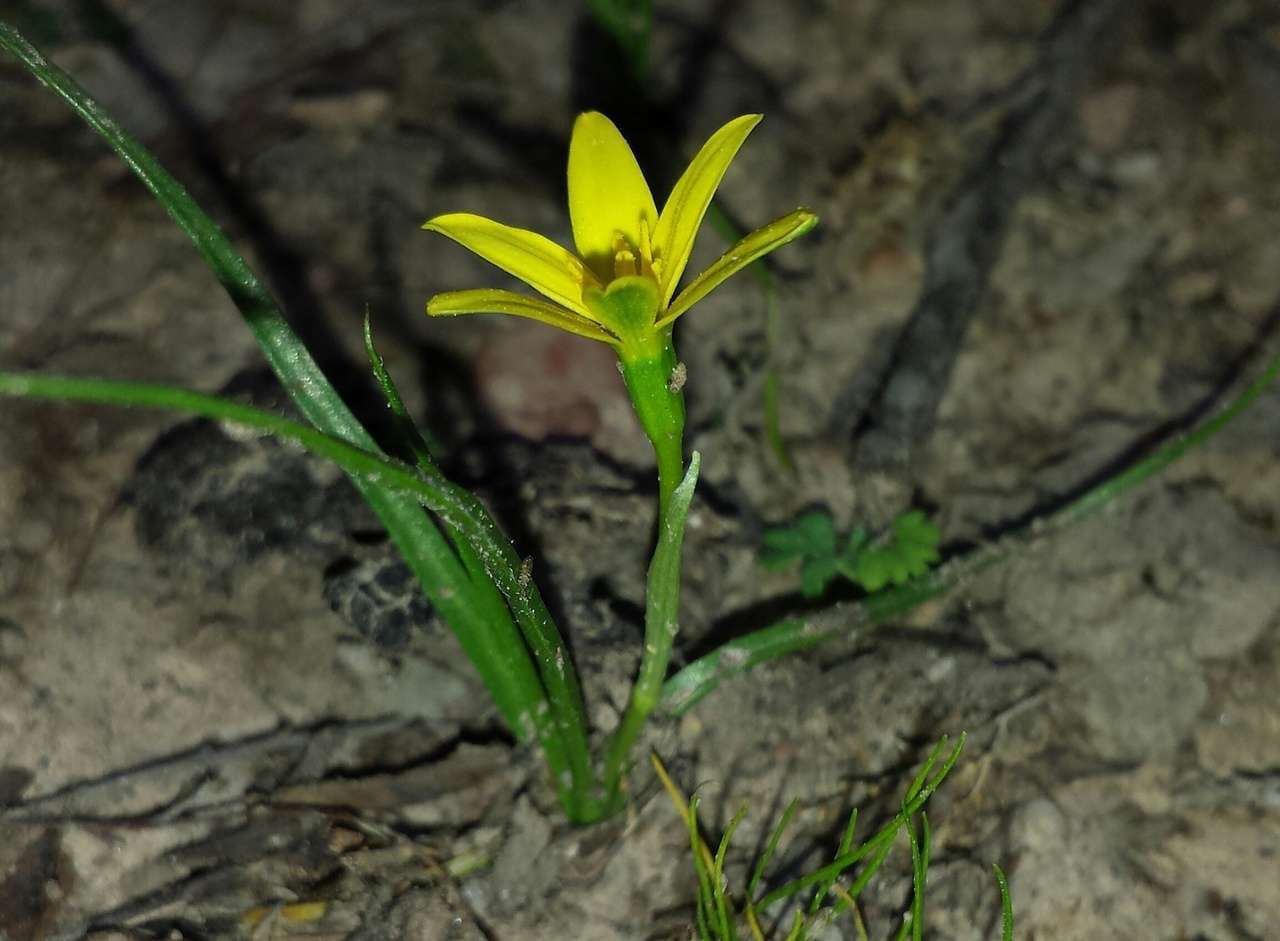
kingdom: Plantae
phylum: Tracheophyta
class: Liliopsida
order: Asparagales
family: Hypoxidaceae
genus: Pauridia
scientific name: Pauridia vaginata
